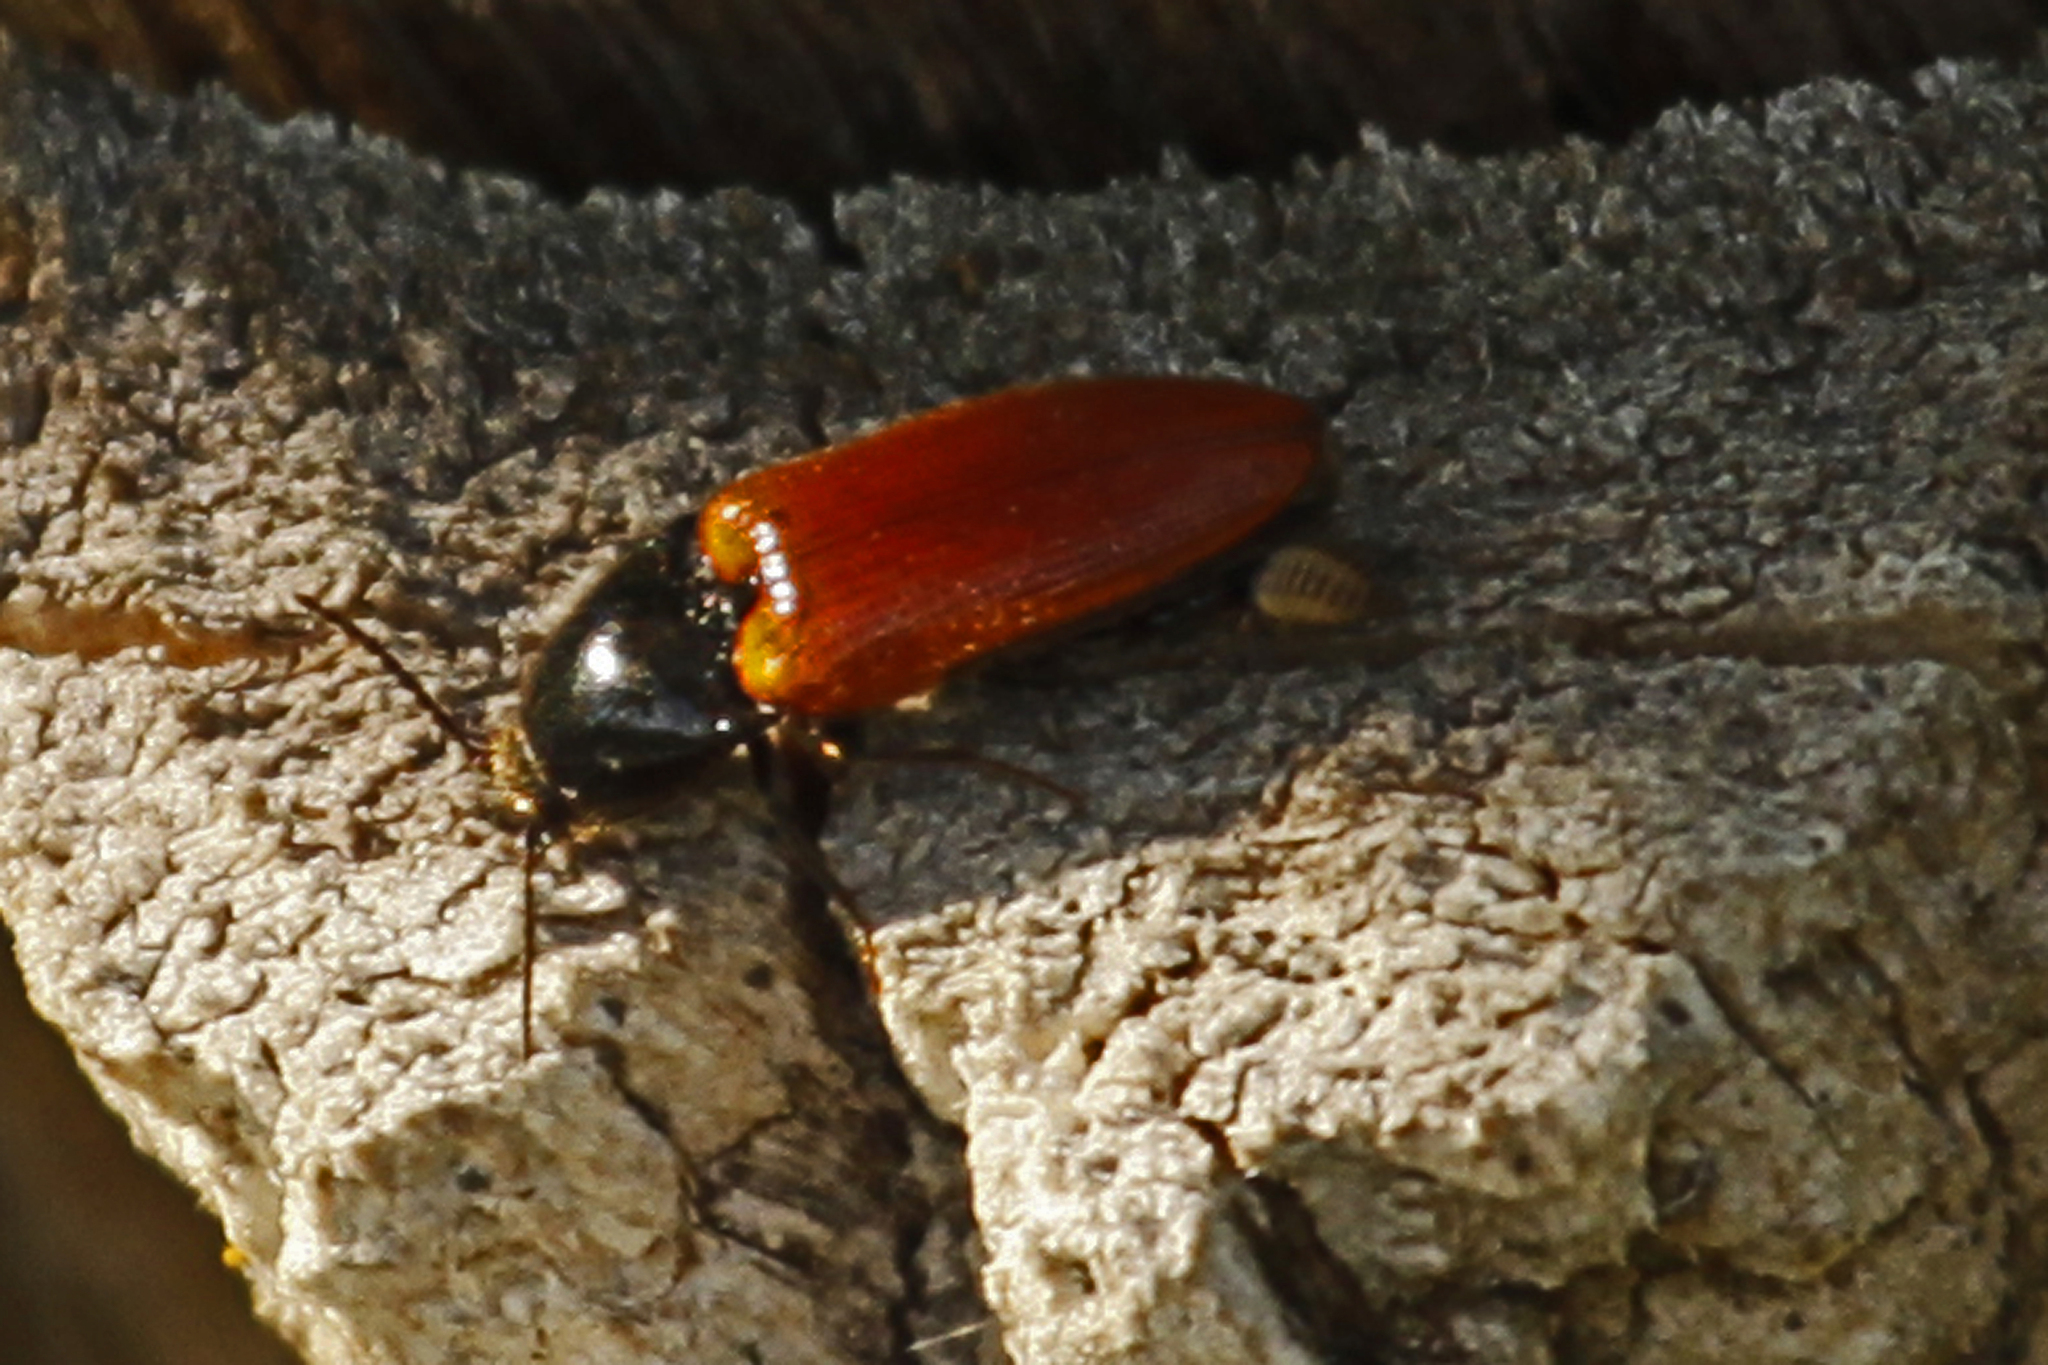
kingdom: Animalia
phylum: Arthropoda
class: Insecta
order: Coleoptera
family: Elateridae
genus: Ampedus
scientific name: Ampedus sanguinipennis
